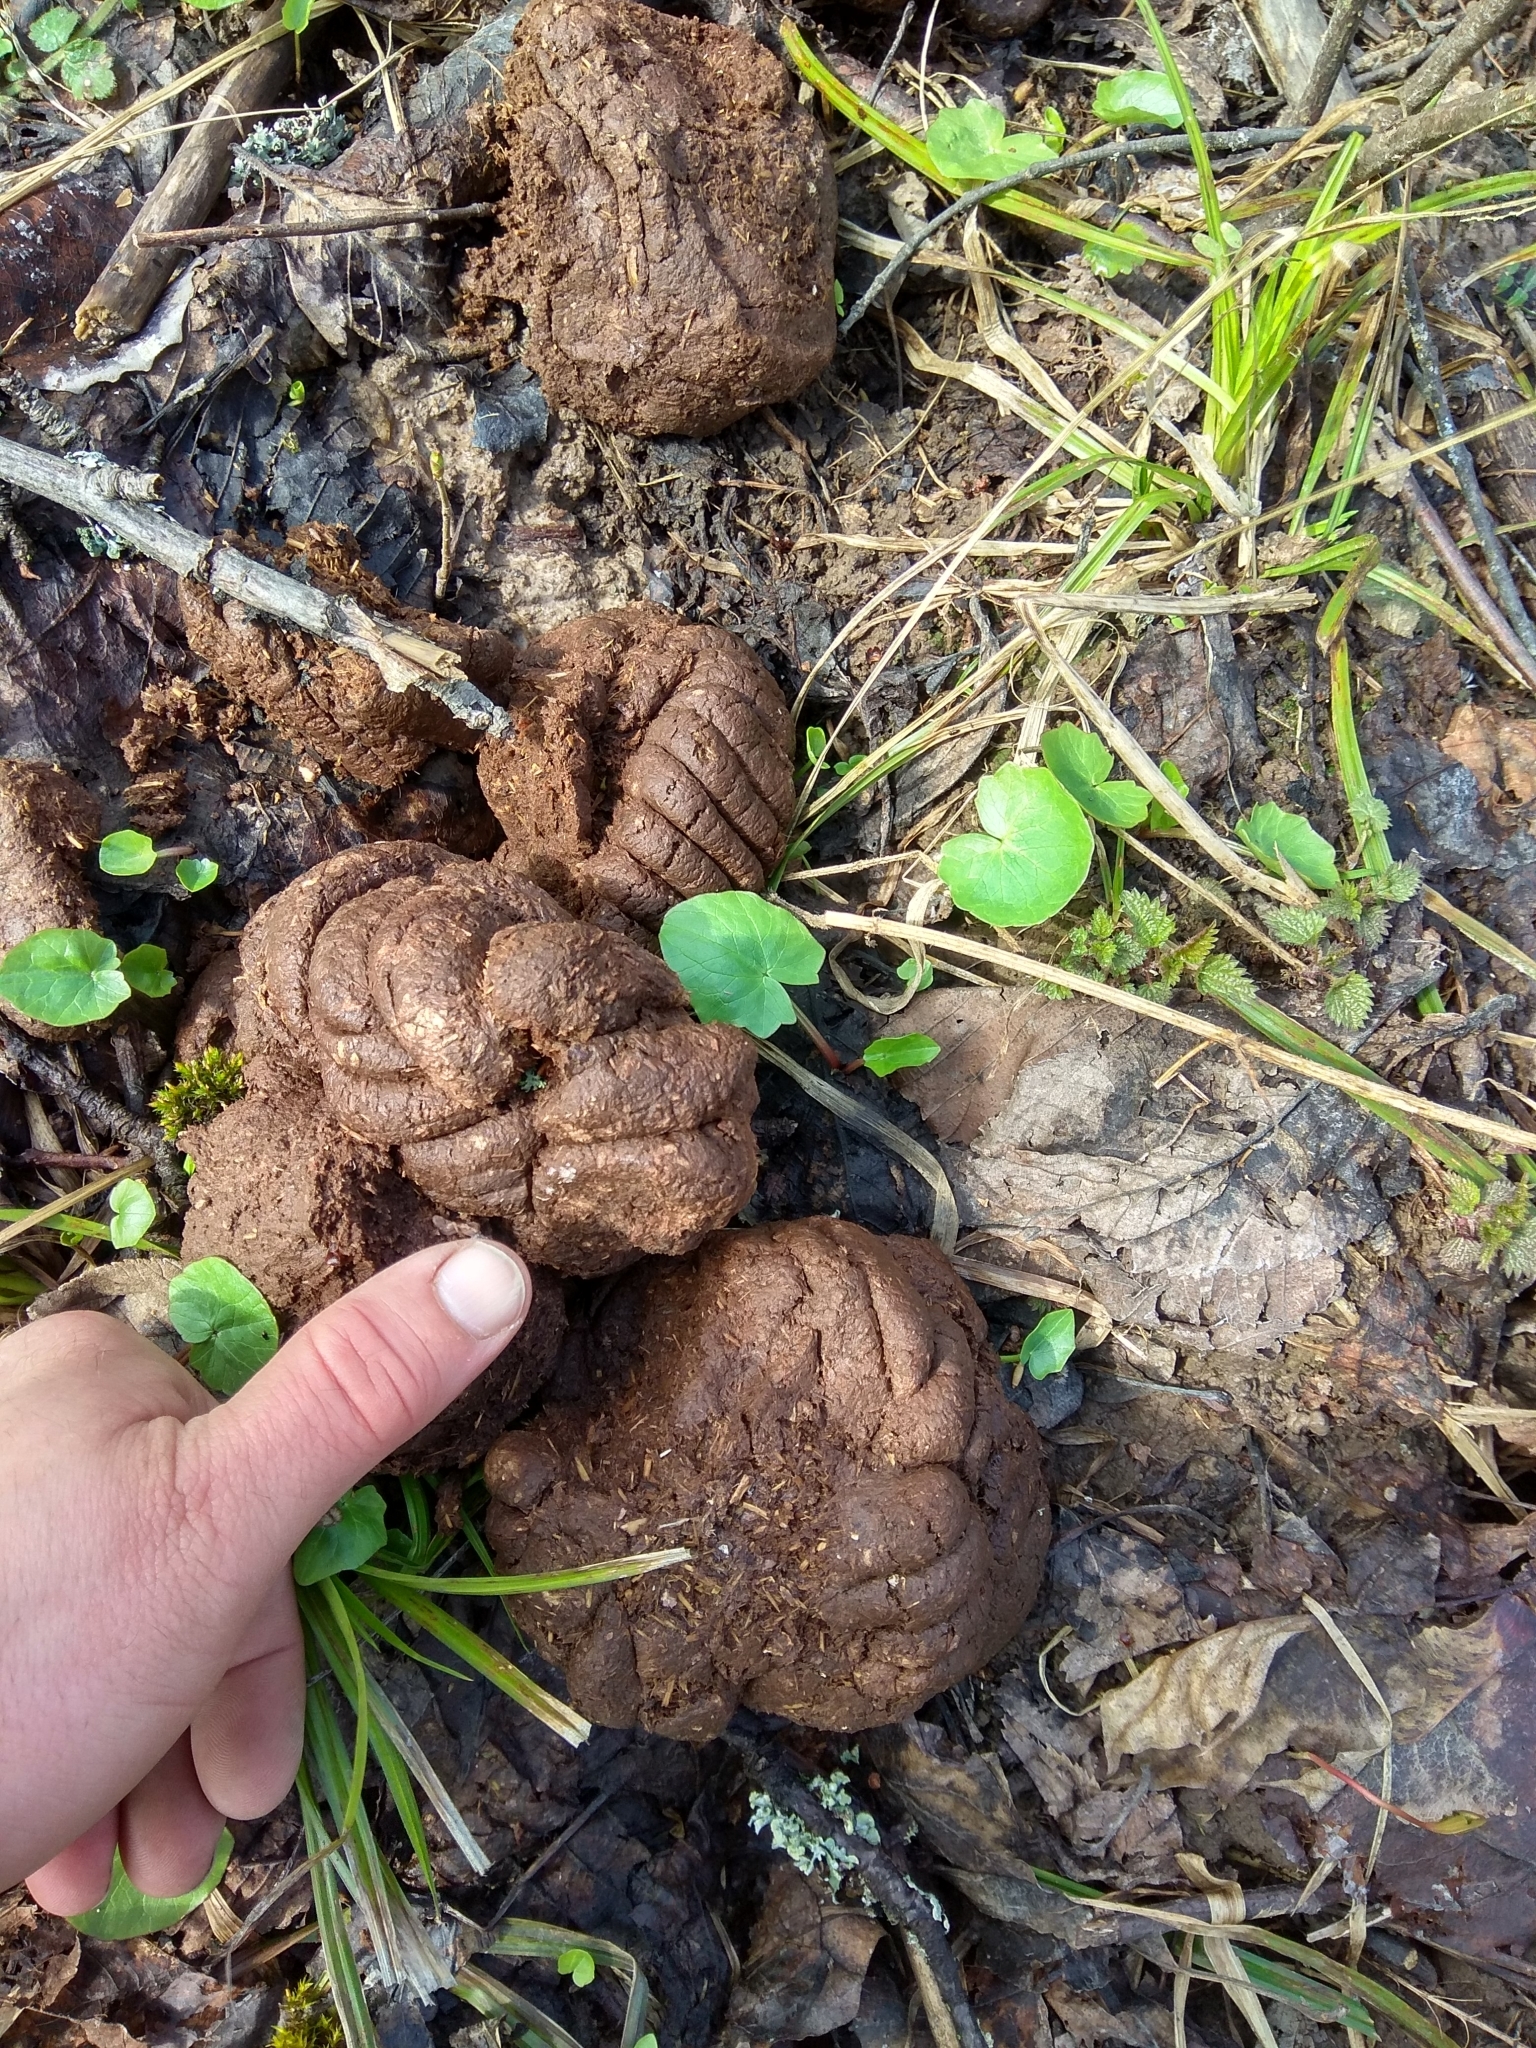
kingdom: Animalia
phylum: Chordata
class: Mammalia
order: Artiodactyla
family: Bovidae
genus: Bison
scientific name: Bison bonasus
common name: European bison
